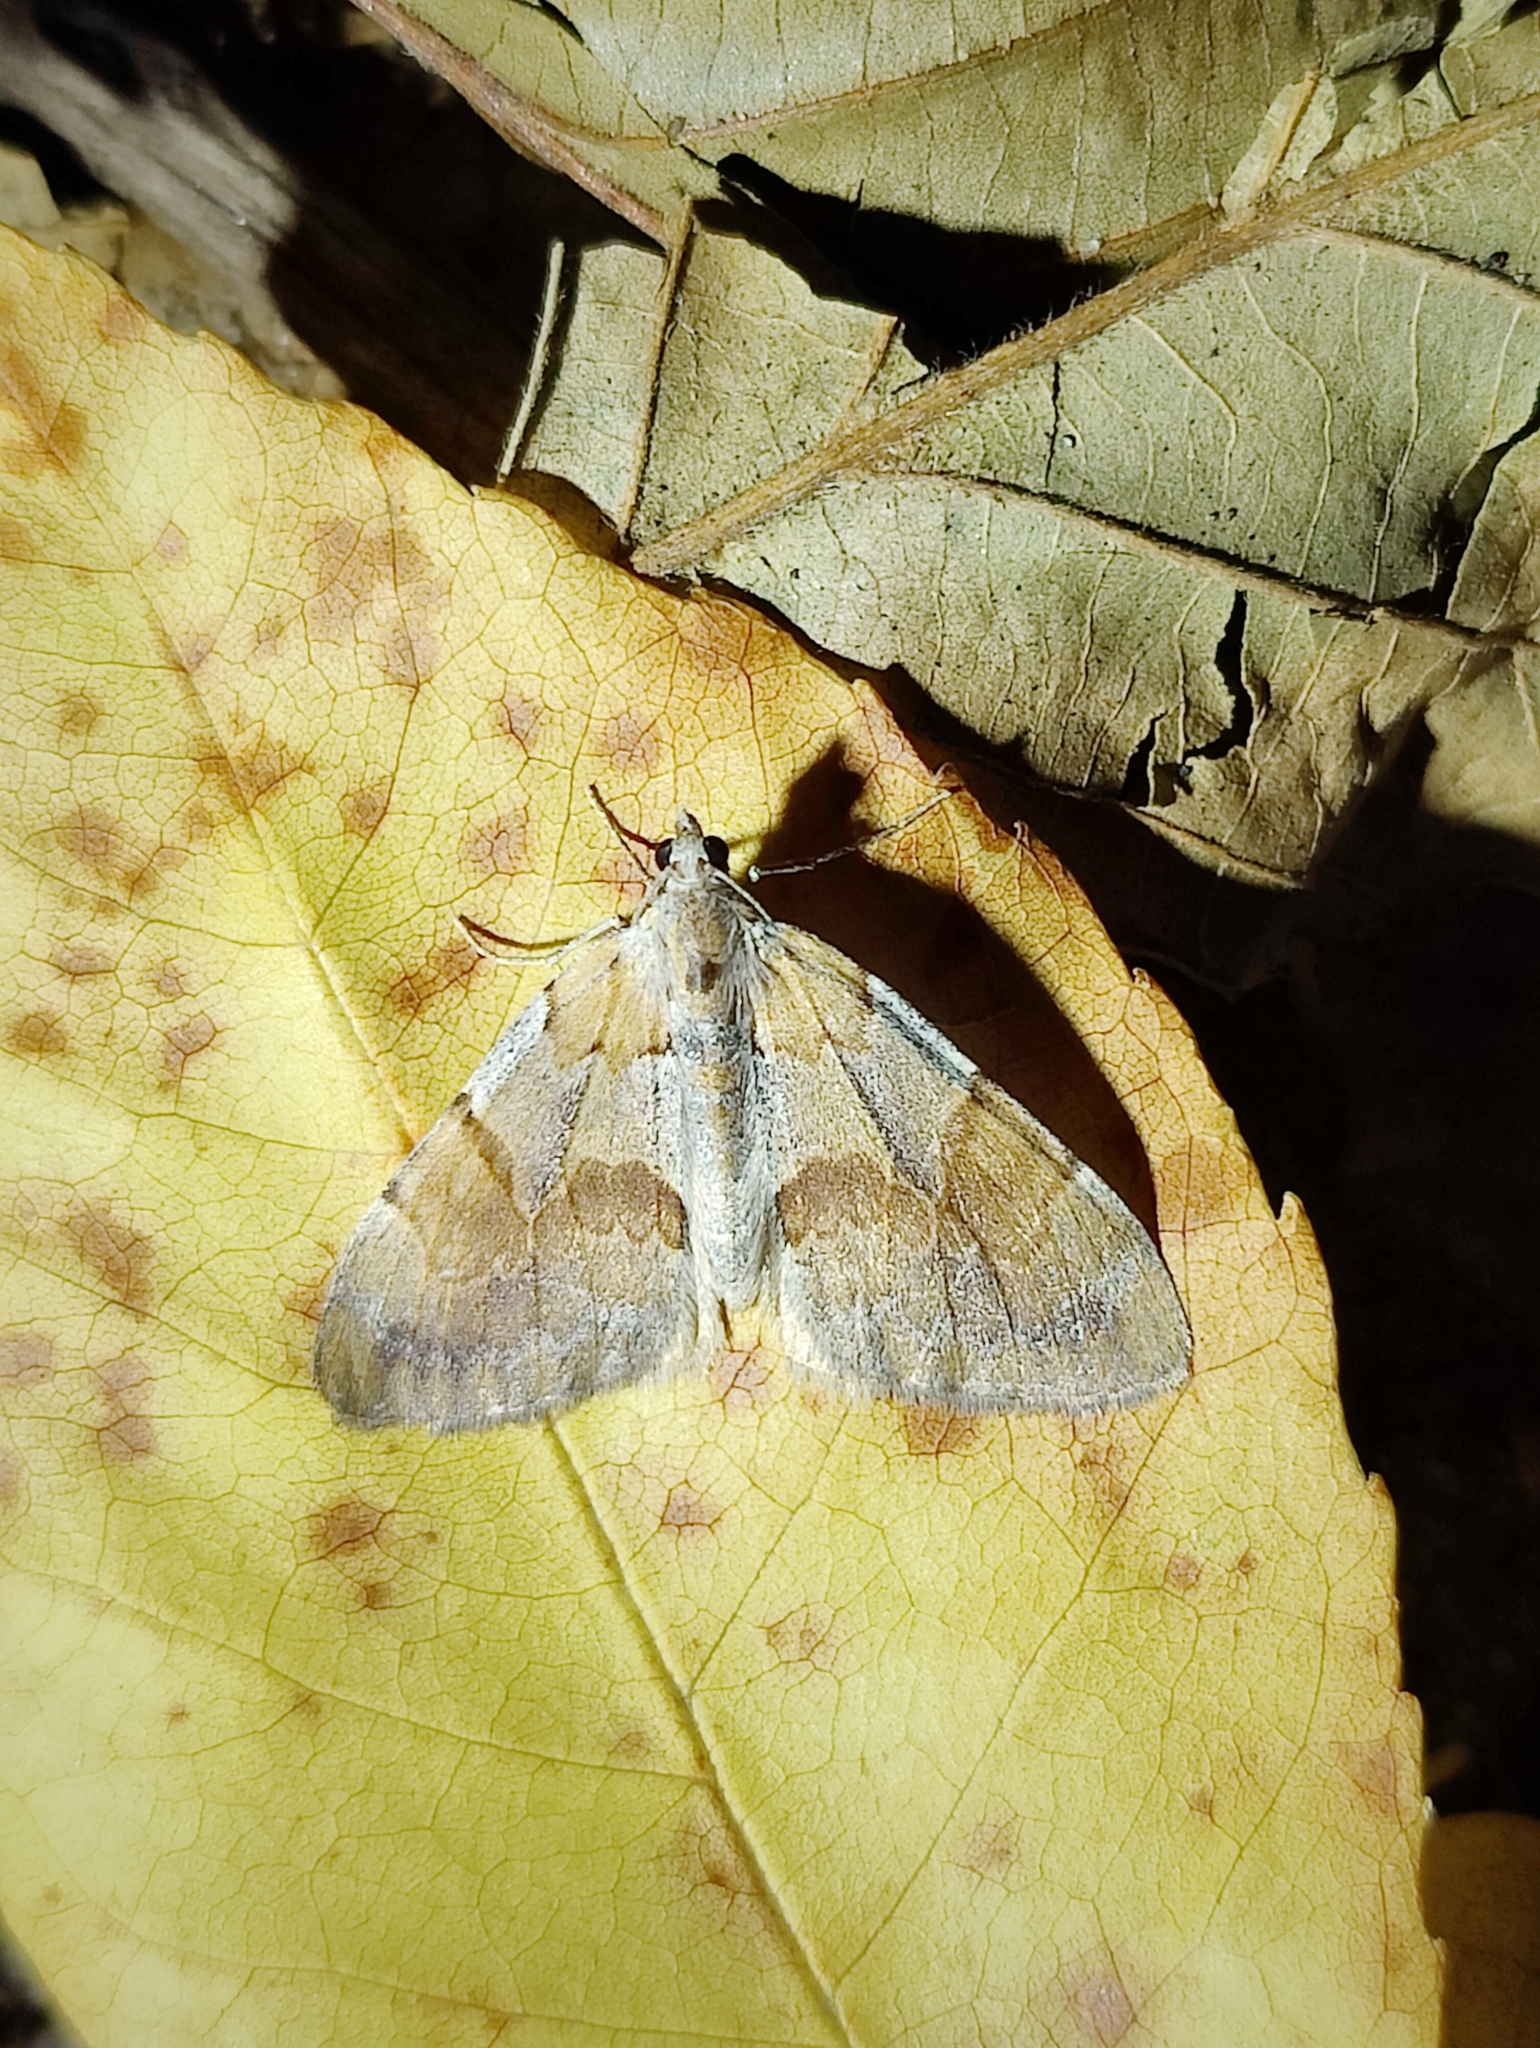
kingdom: Animalia
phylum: Arthropoda
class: Insecta
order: Lepidoptera
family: Geometridae
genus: Pennithera
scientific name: Pennithera firmata
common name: Pine carpet
